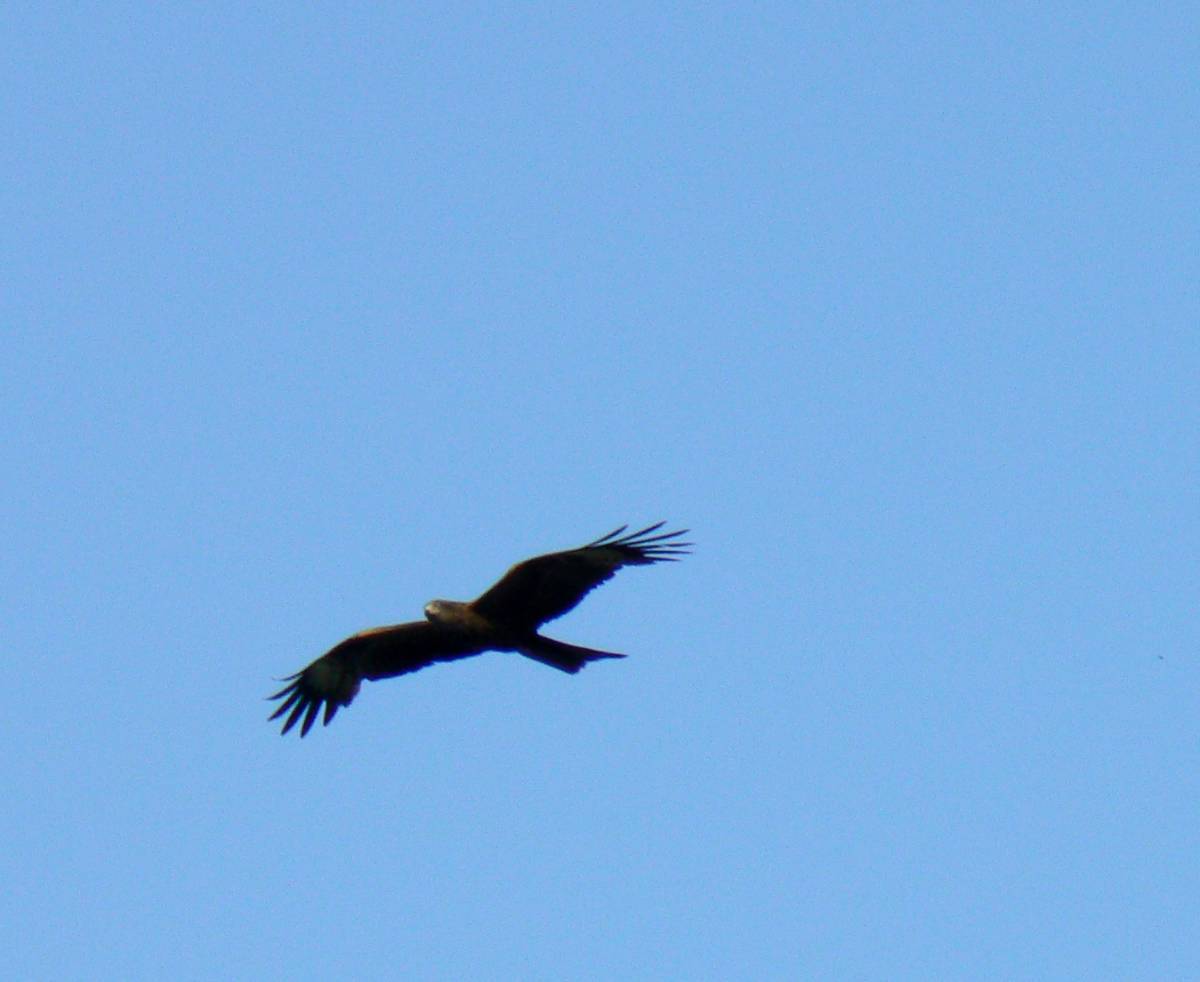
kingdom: Animalia
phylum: Chordata
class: Aves
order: Accipitriformes
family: Accipitridae
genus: Milvus
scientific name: Milvus migrans
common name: Black kite
